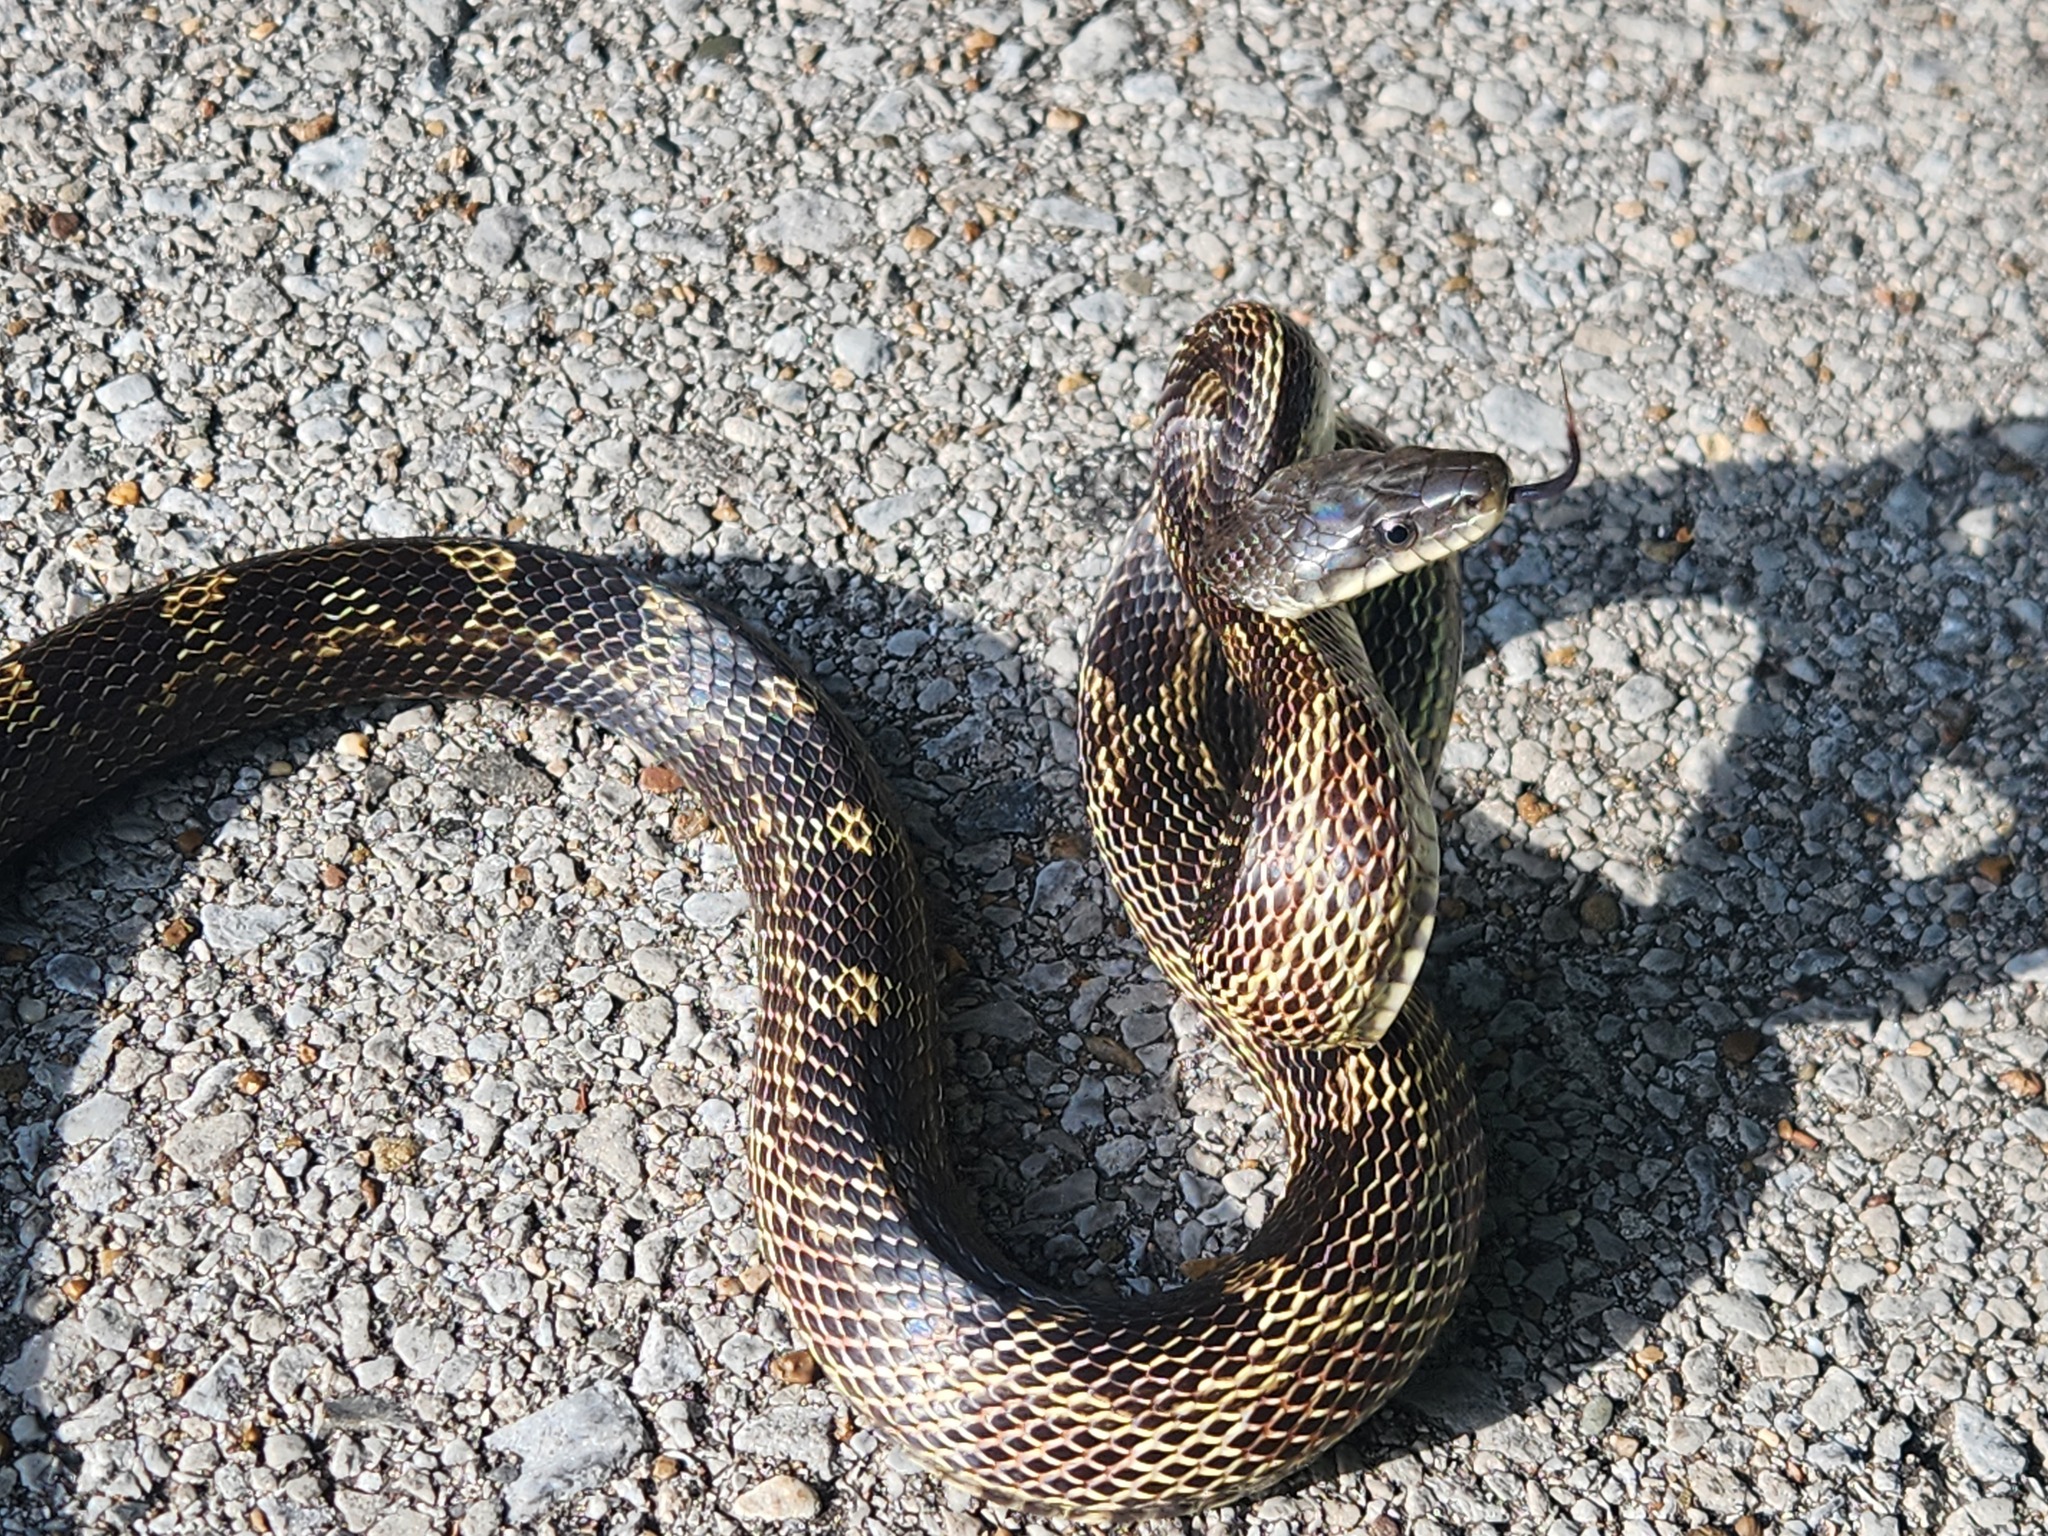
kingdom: Animalia
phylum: Chordata
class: Squamata
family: Colubridae
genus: Pantherophis
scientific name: Pantherophis spiloides
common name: Gray rat snake
